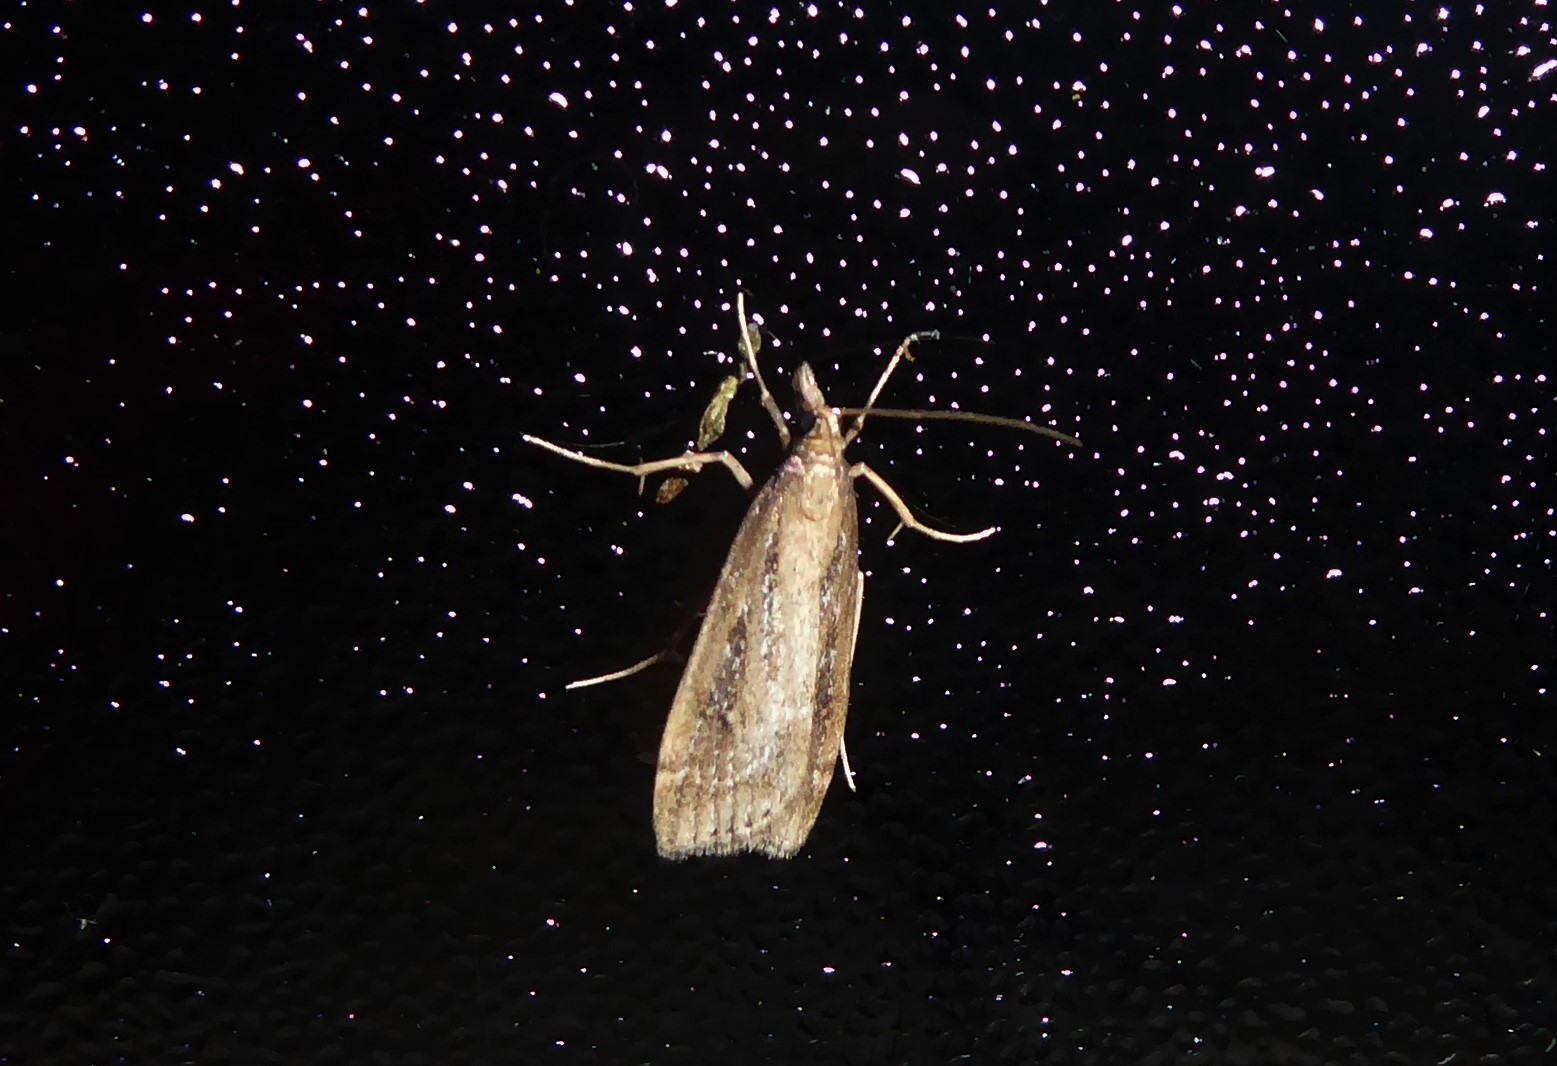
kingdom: Animalia
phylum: Arthropoda
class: Insecta
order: Lepidoptera
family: Crambidae
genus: Eudonia
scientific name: Eudonia octophora
